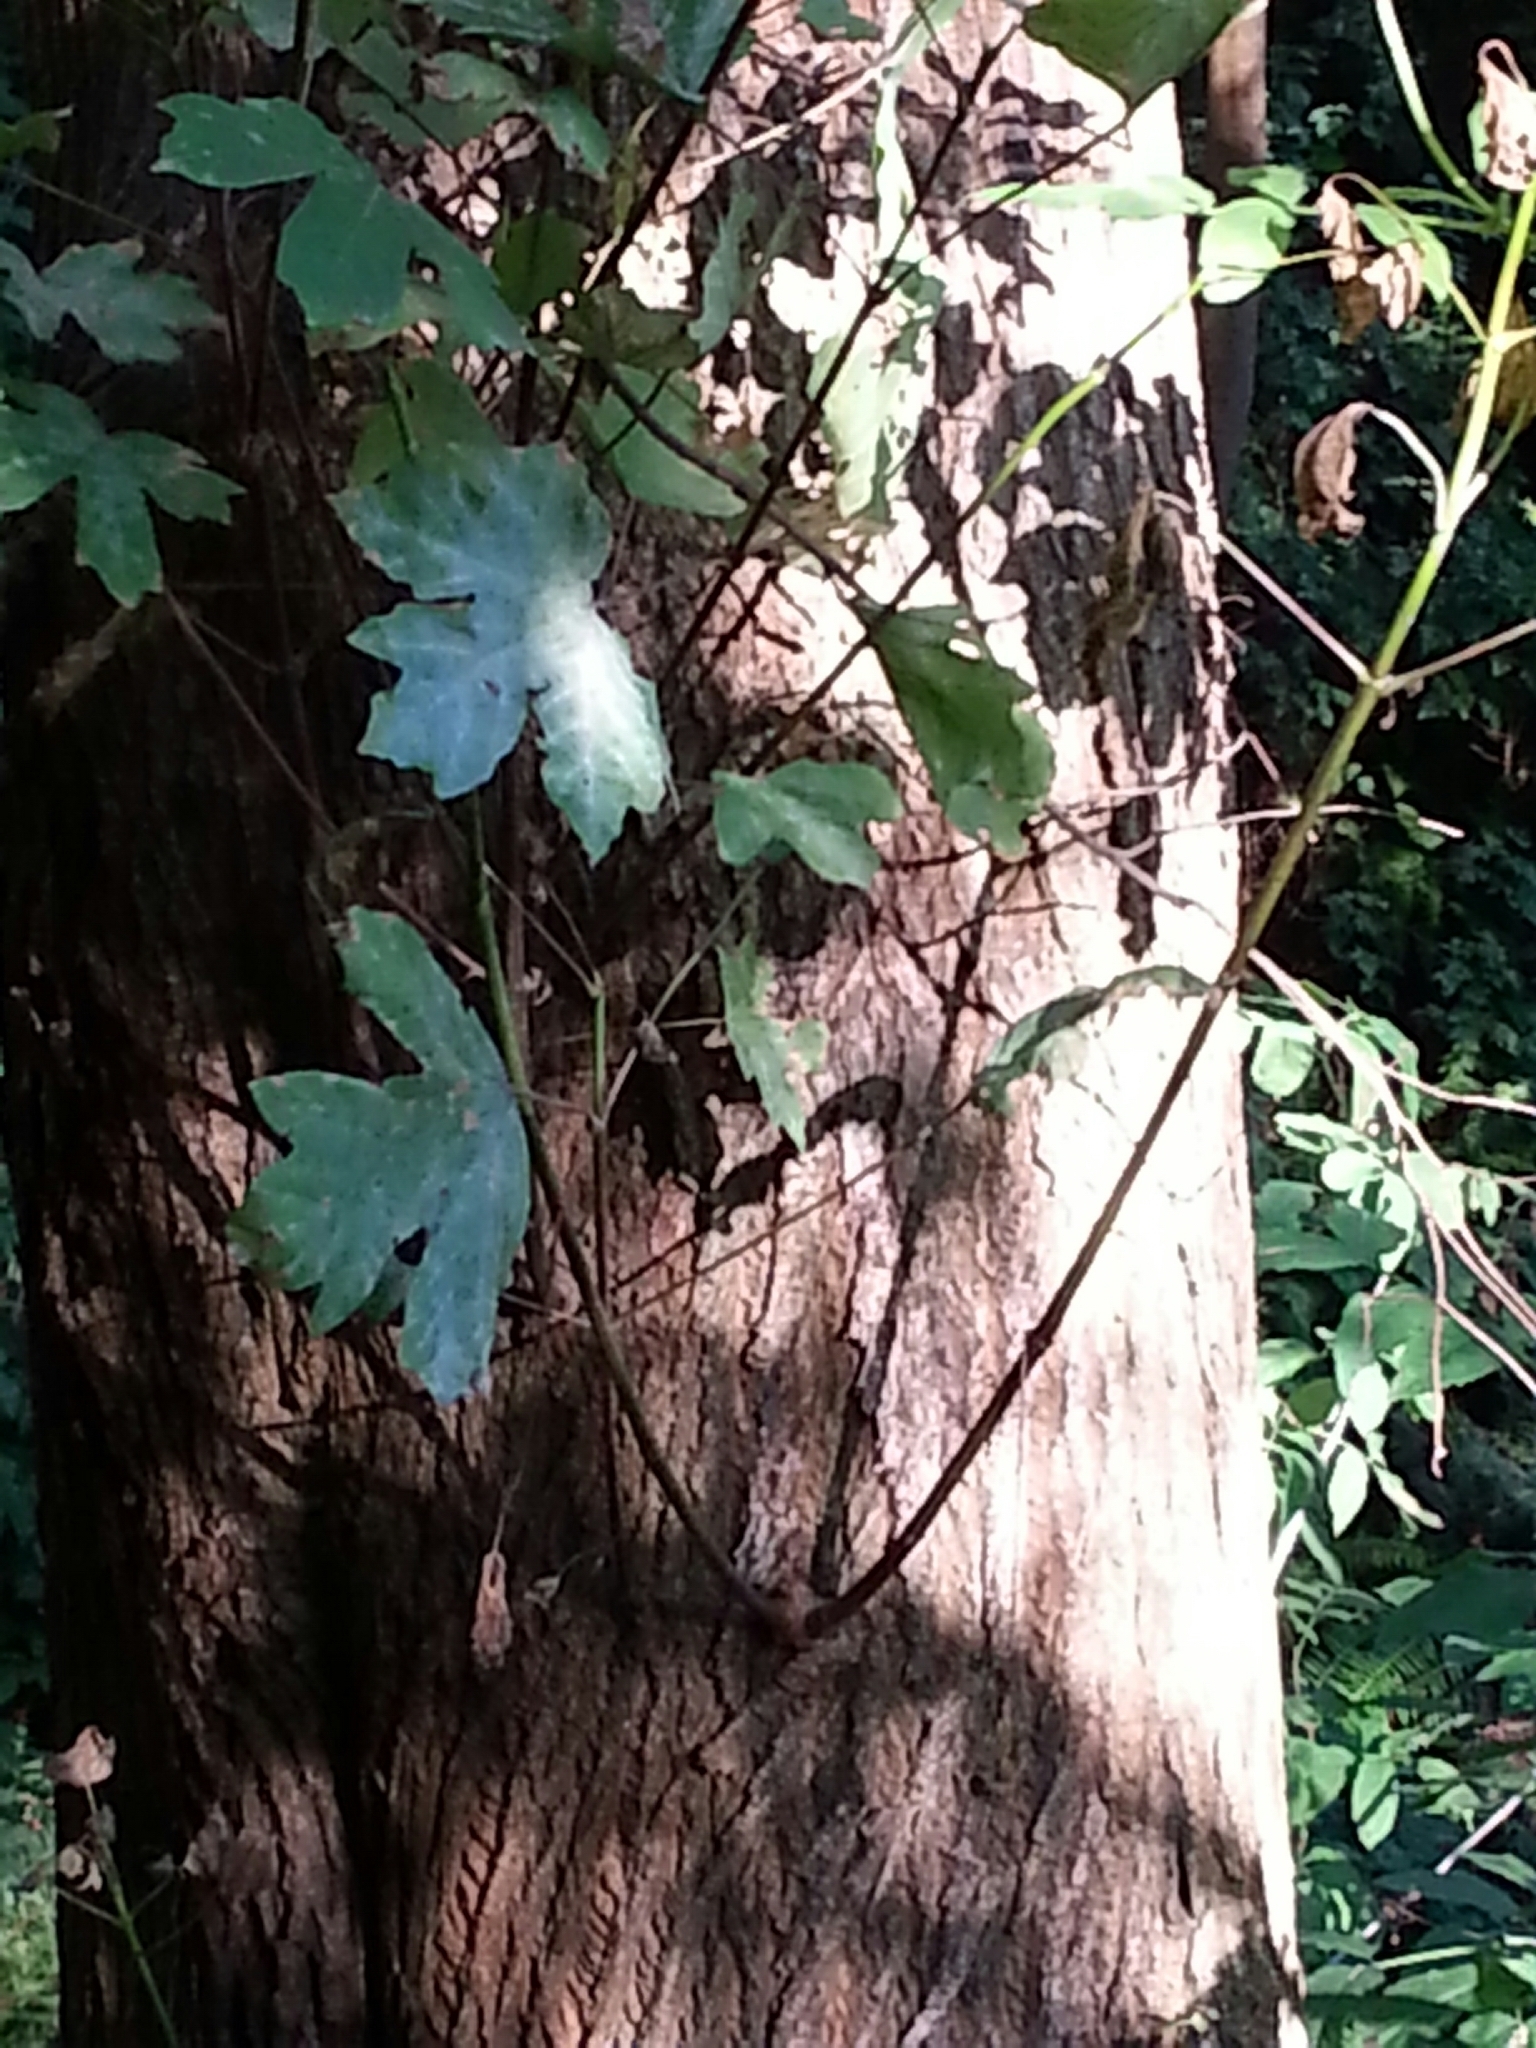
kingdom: Plantae
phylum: Tracheophyta
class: Magnoliopsida
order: Sapindales
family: Sapindaceae
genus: Acer
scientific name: Acer macrophyllum
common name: Oregon maple
